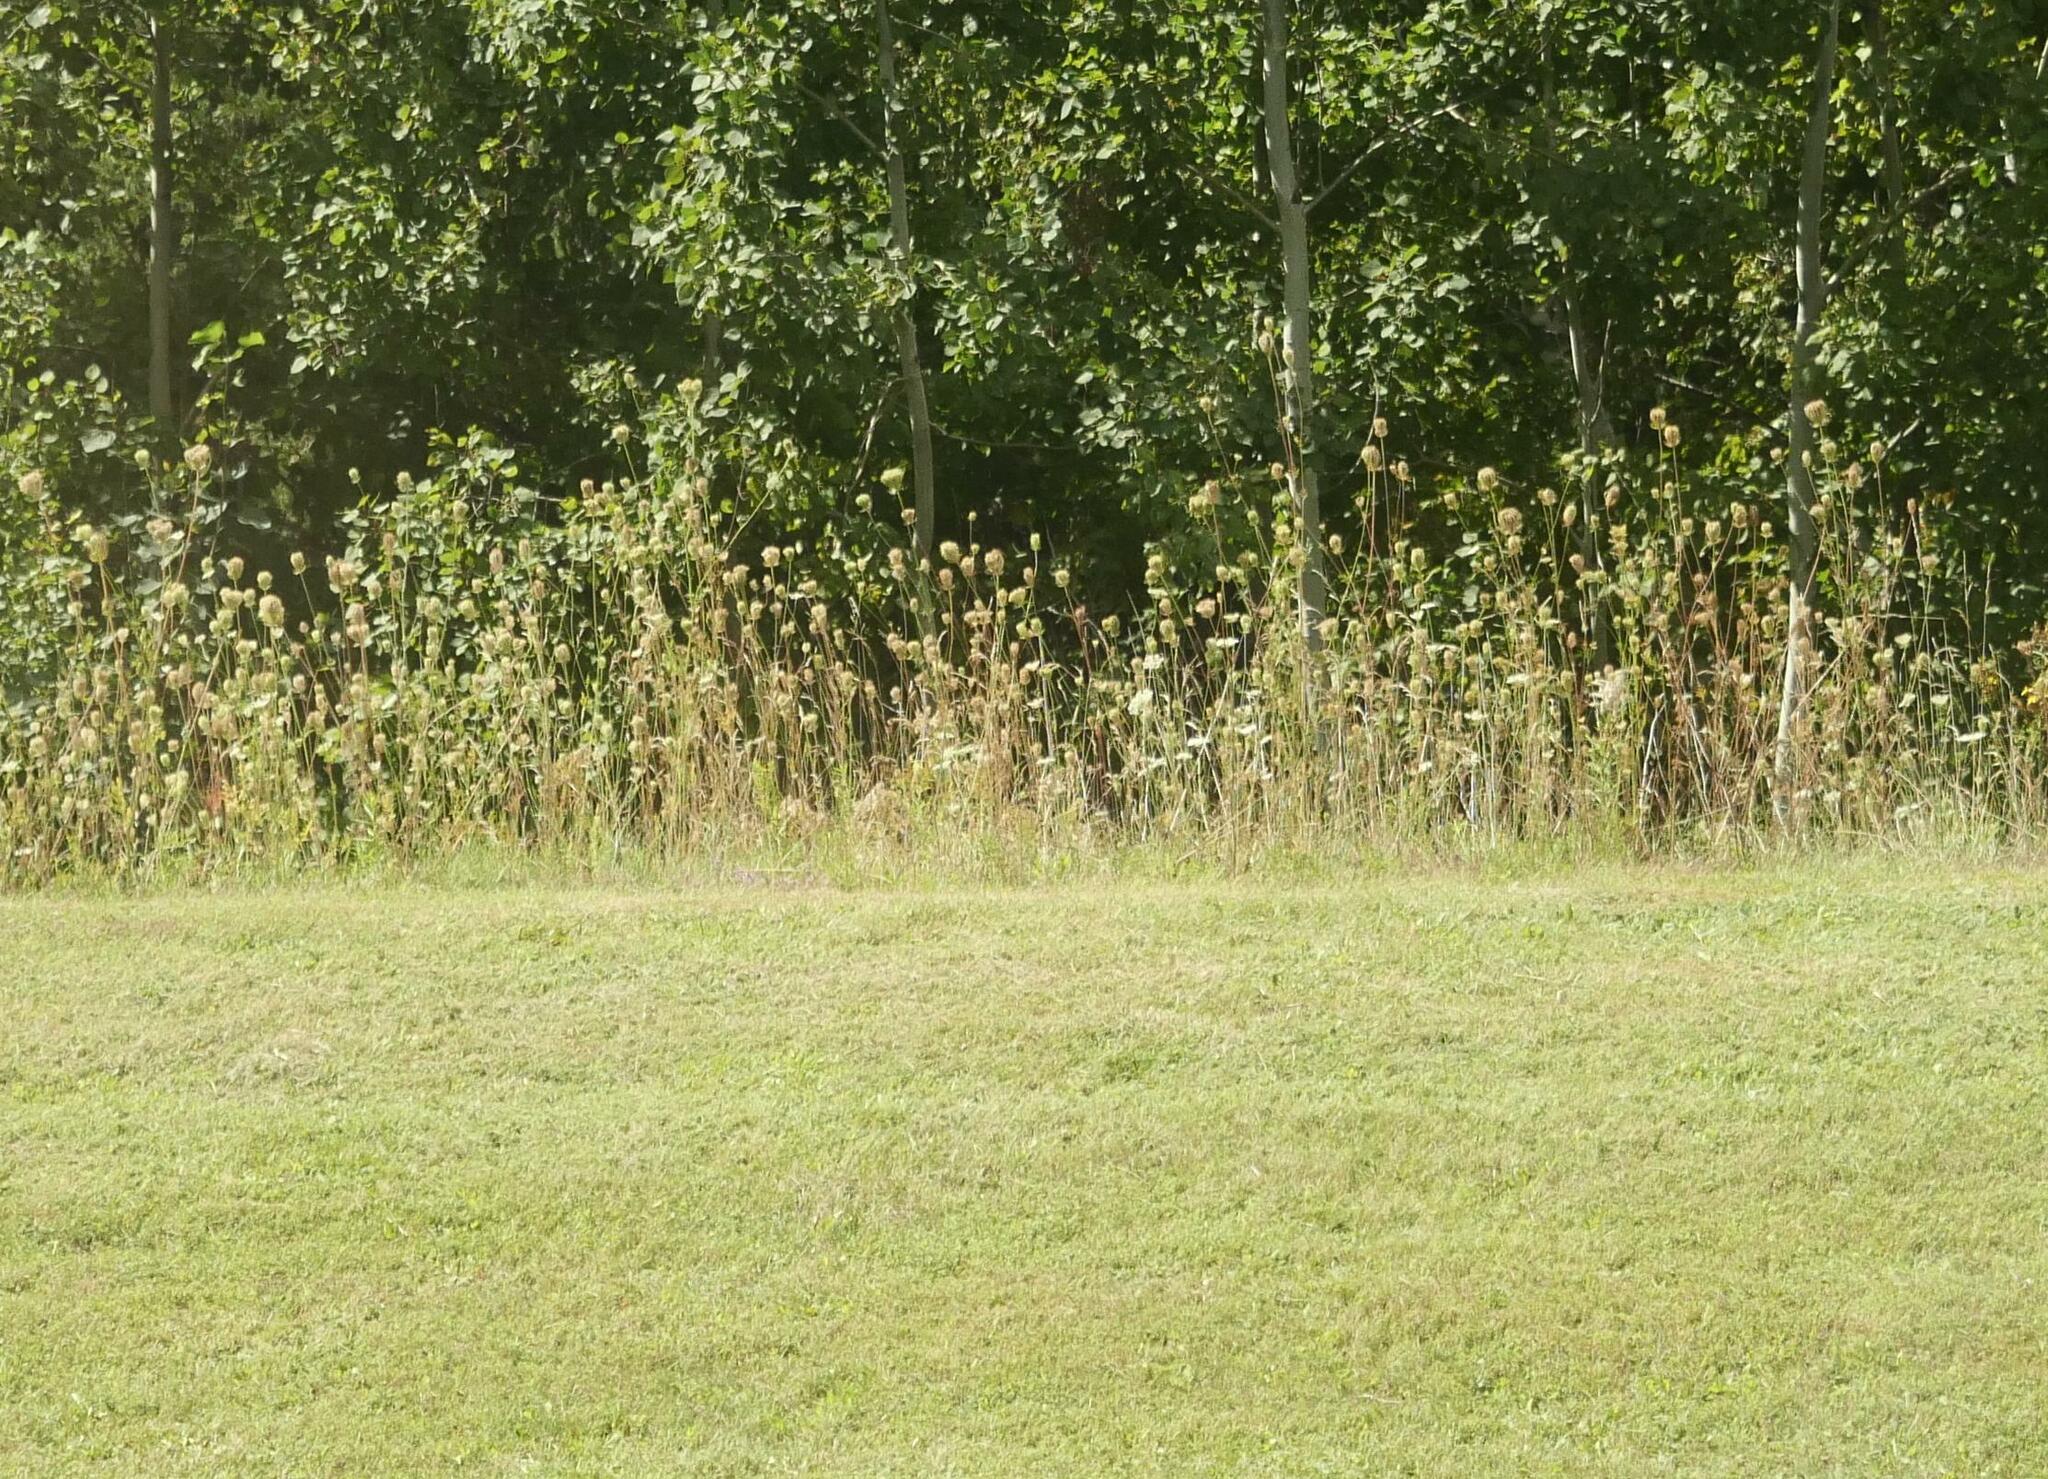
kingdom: Plantae
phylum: Tracheophyta
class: Magnoliopsida
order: Apiales
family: Apiaceae
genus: Daucus
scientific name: Daucus carota
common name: Wild carrot
